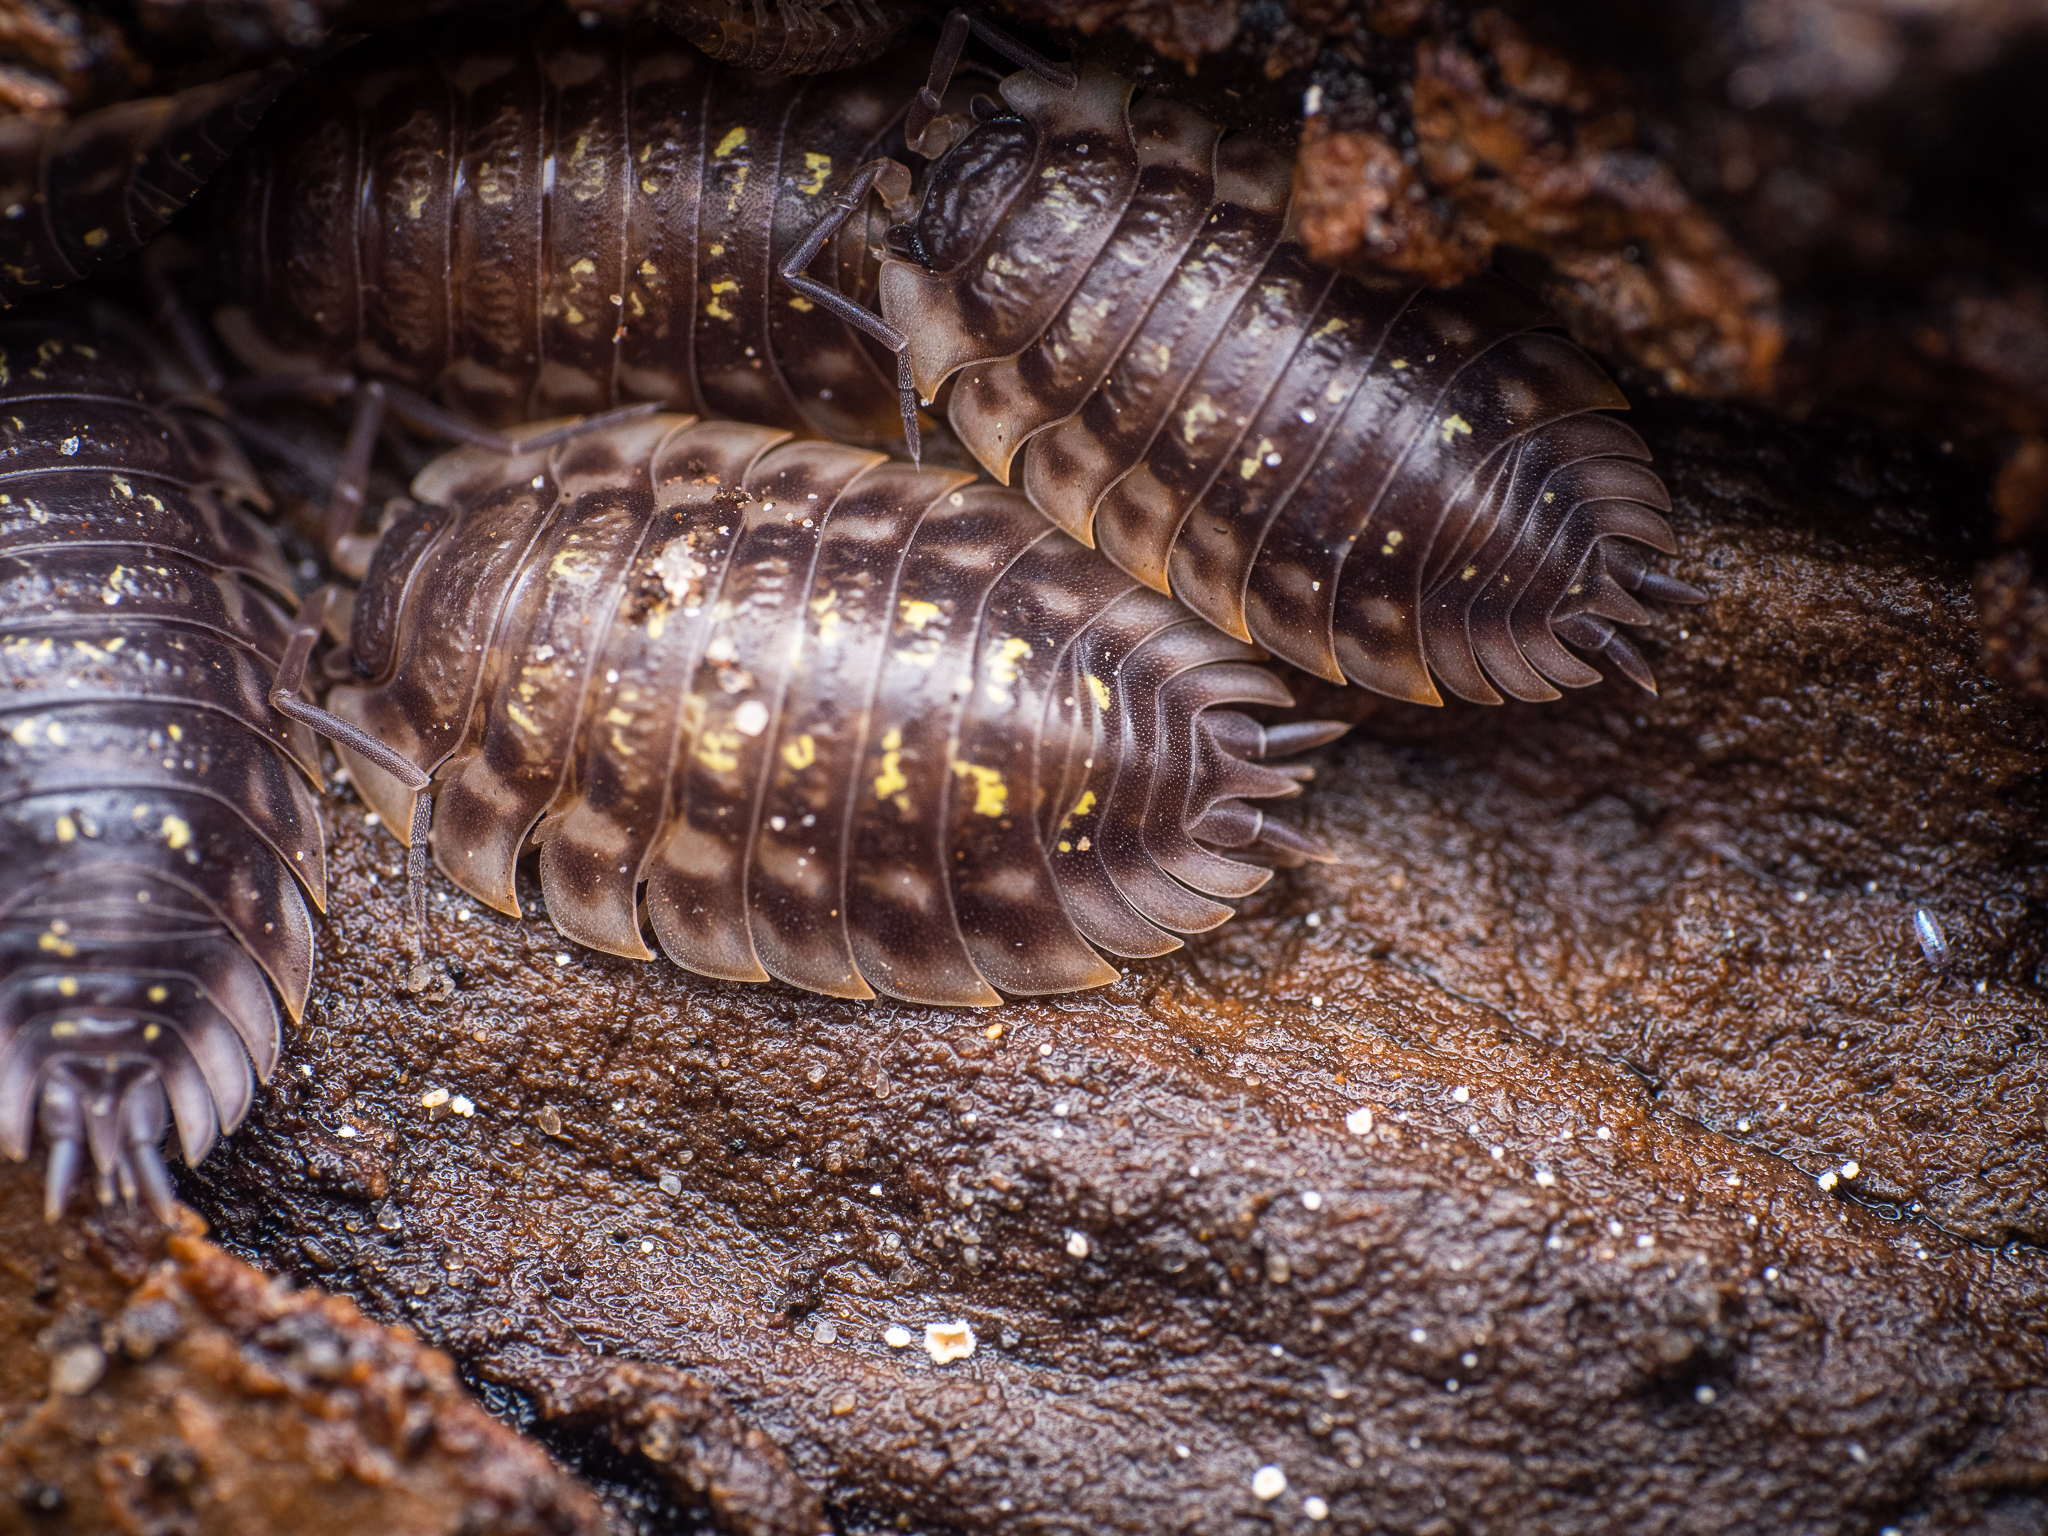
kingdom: Animalia
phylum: Arthropoda
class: Malacostraca
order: Isopoda
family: Oniscidae
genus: Oniscus
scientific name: Oniscus asellus
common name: Common shiny woodlouse
